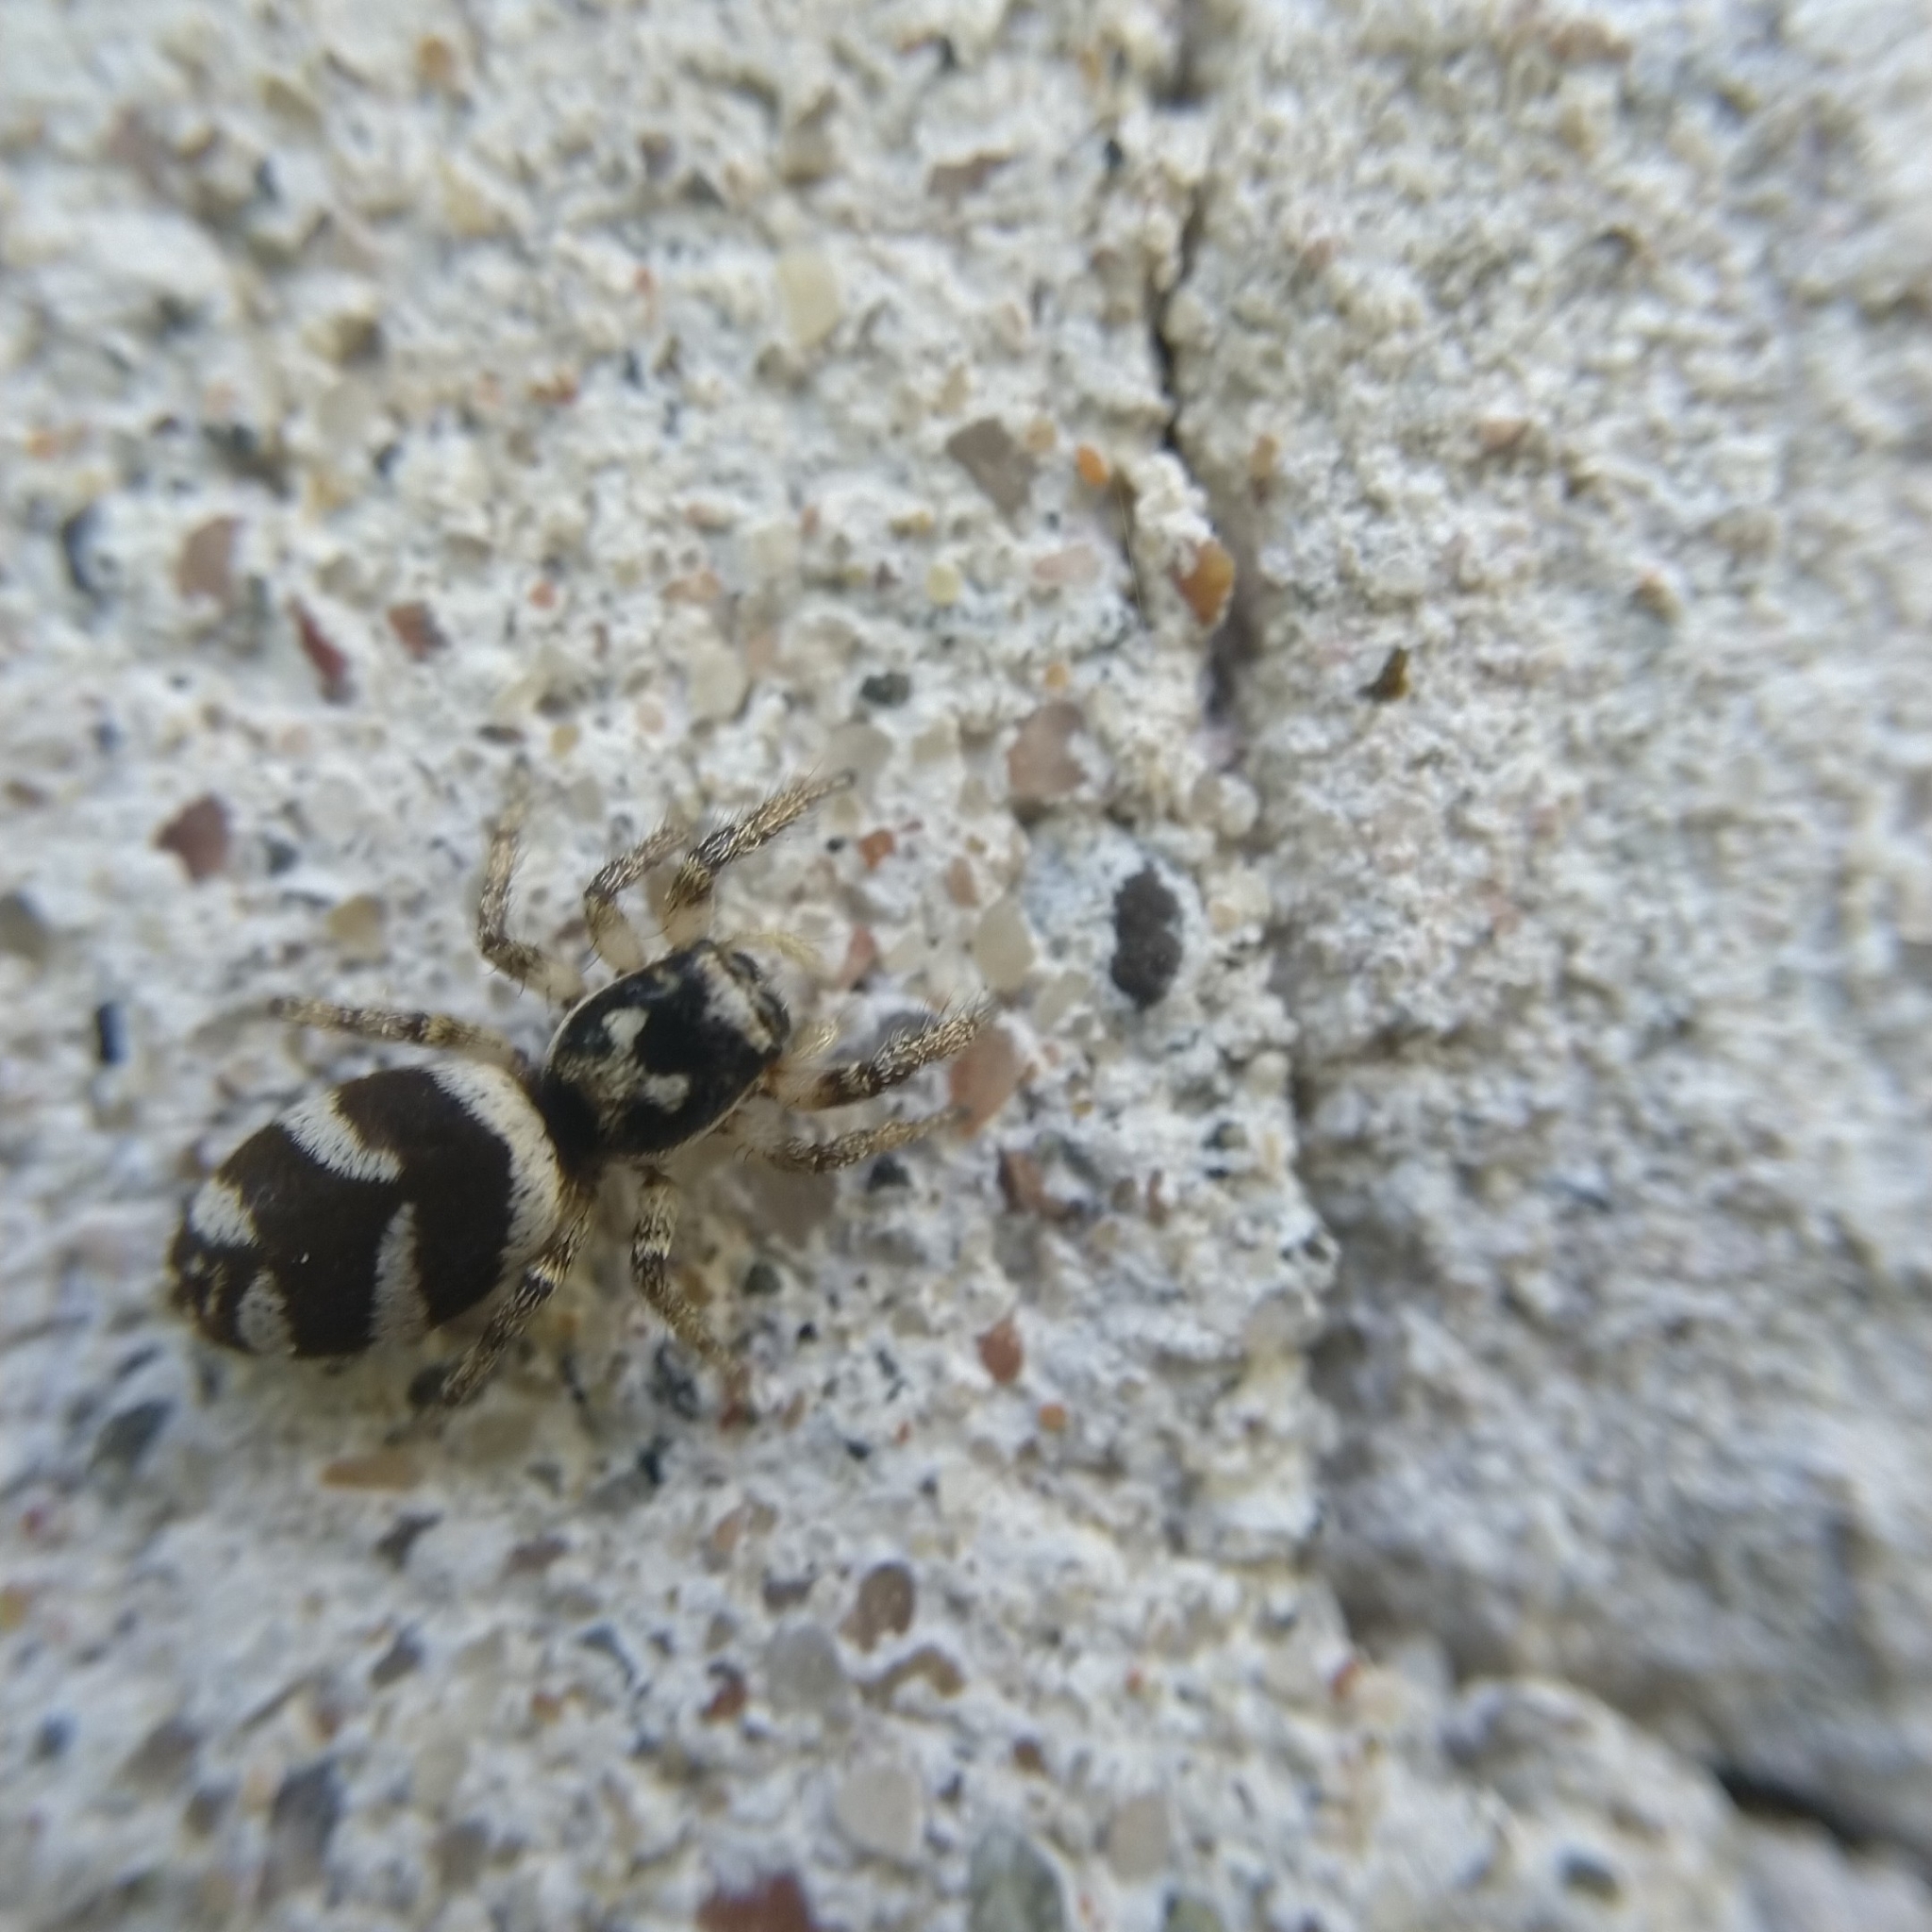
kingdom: Animalia
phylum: Arthropoda
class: Arachnida
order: Araneae
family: Salticidae
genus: Salticus
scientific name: Salticus scenicus
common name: Zebra jumper
